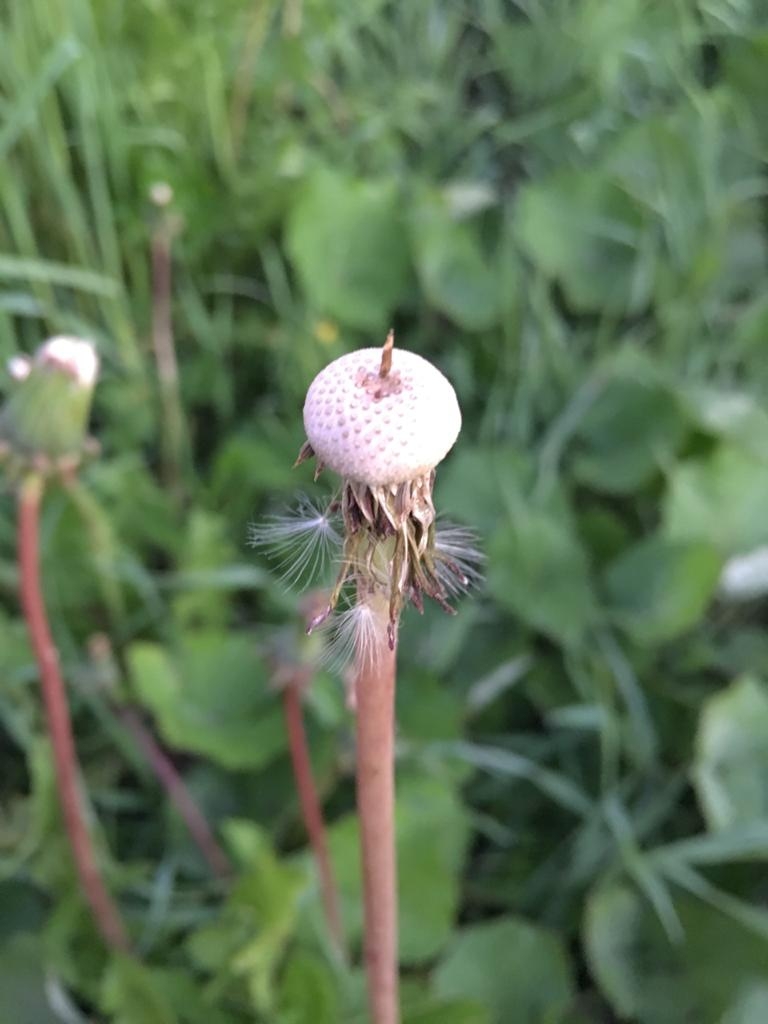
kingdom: Plantae
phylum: Tracheophyta
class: Magnoliopsida
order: Asterales
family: Asteraceae
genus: Taraxacum
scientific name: Taraxacum officinale
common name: Common dandelion
